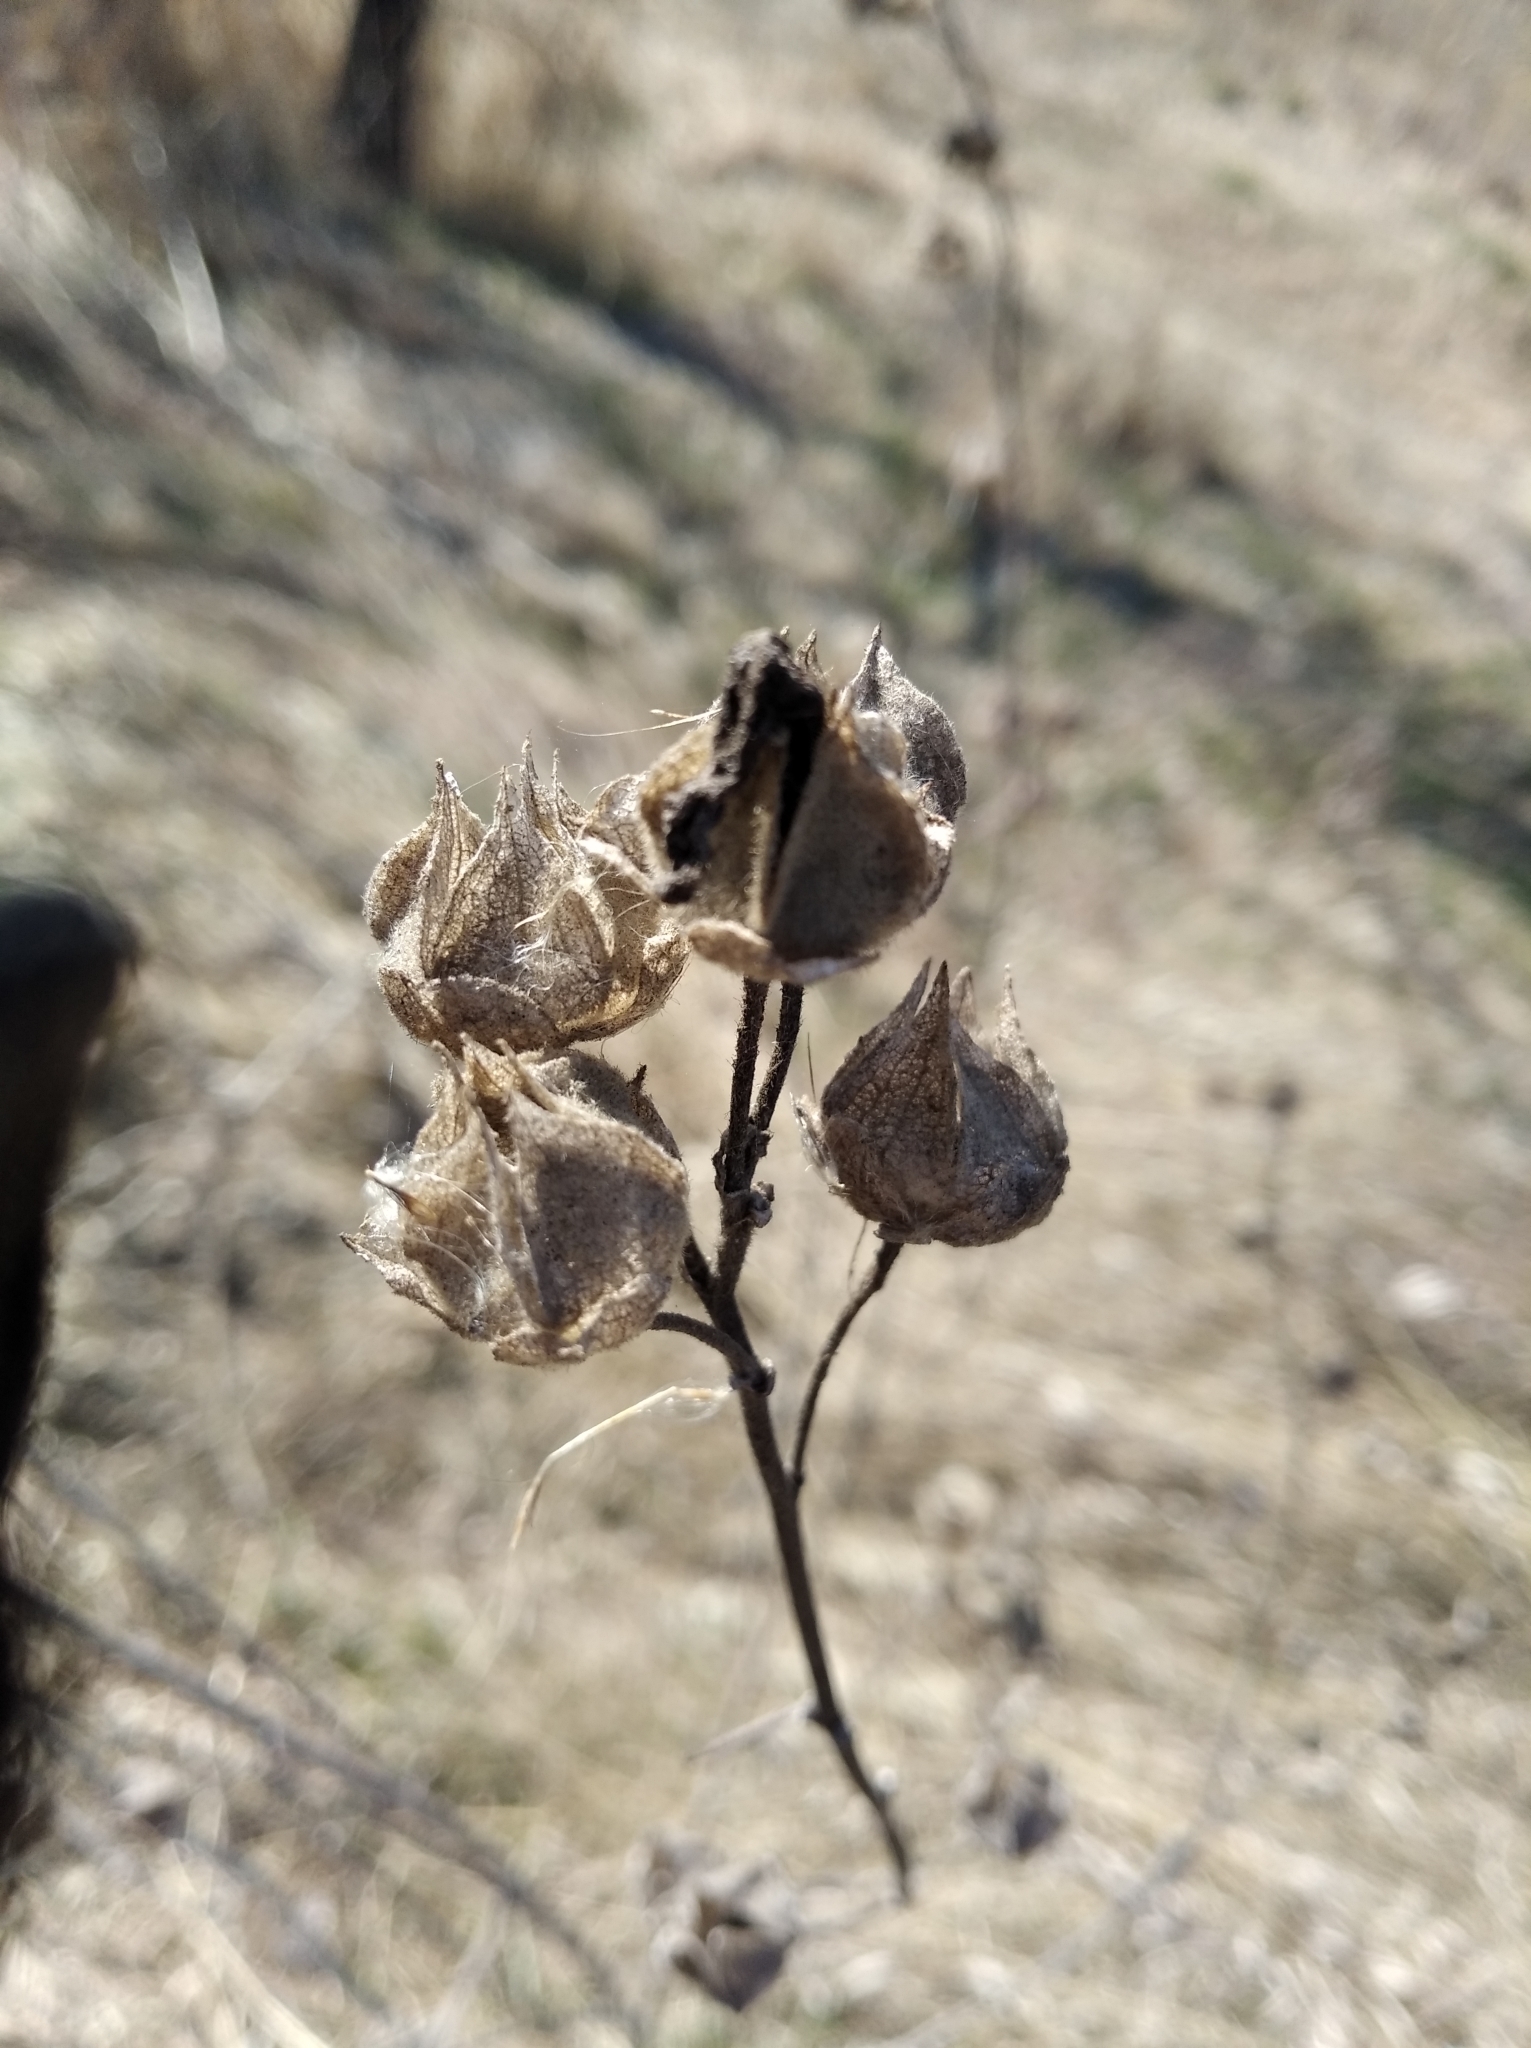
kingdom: Plantae
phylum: Tracheophyta
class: Magnoliopsida
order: Malvales
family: Malvaceae
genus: Malva
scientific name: Malva thuringiaca
